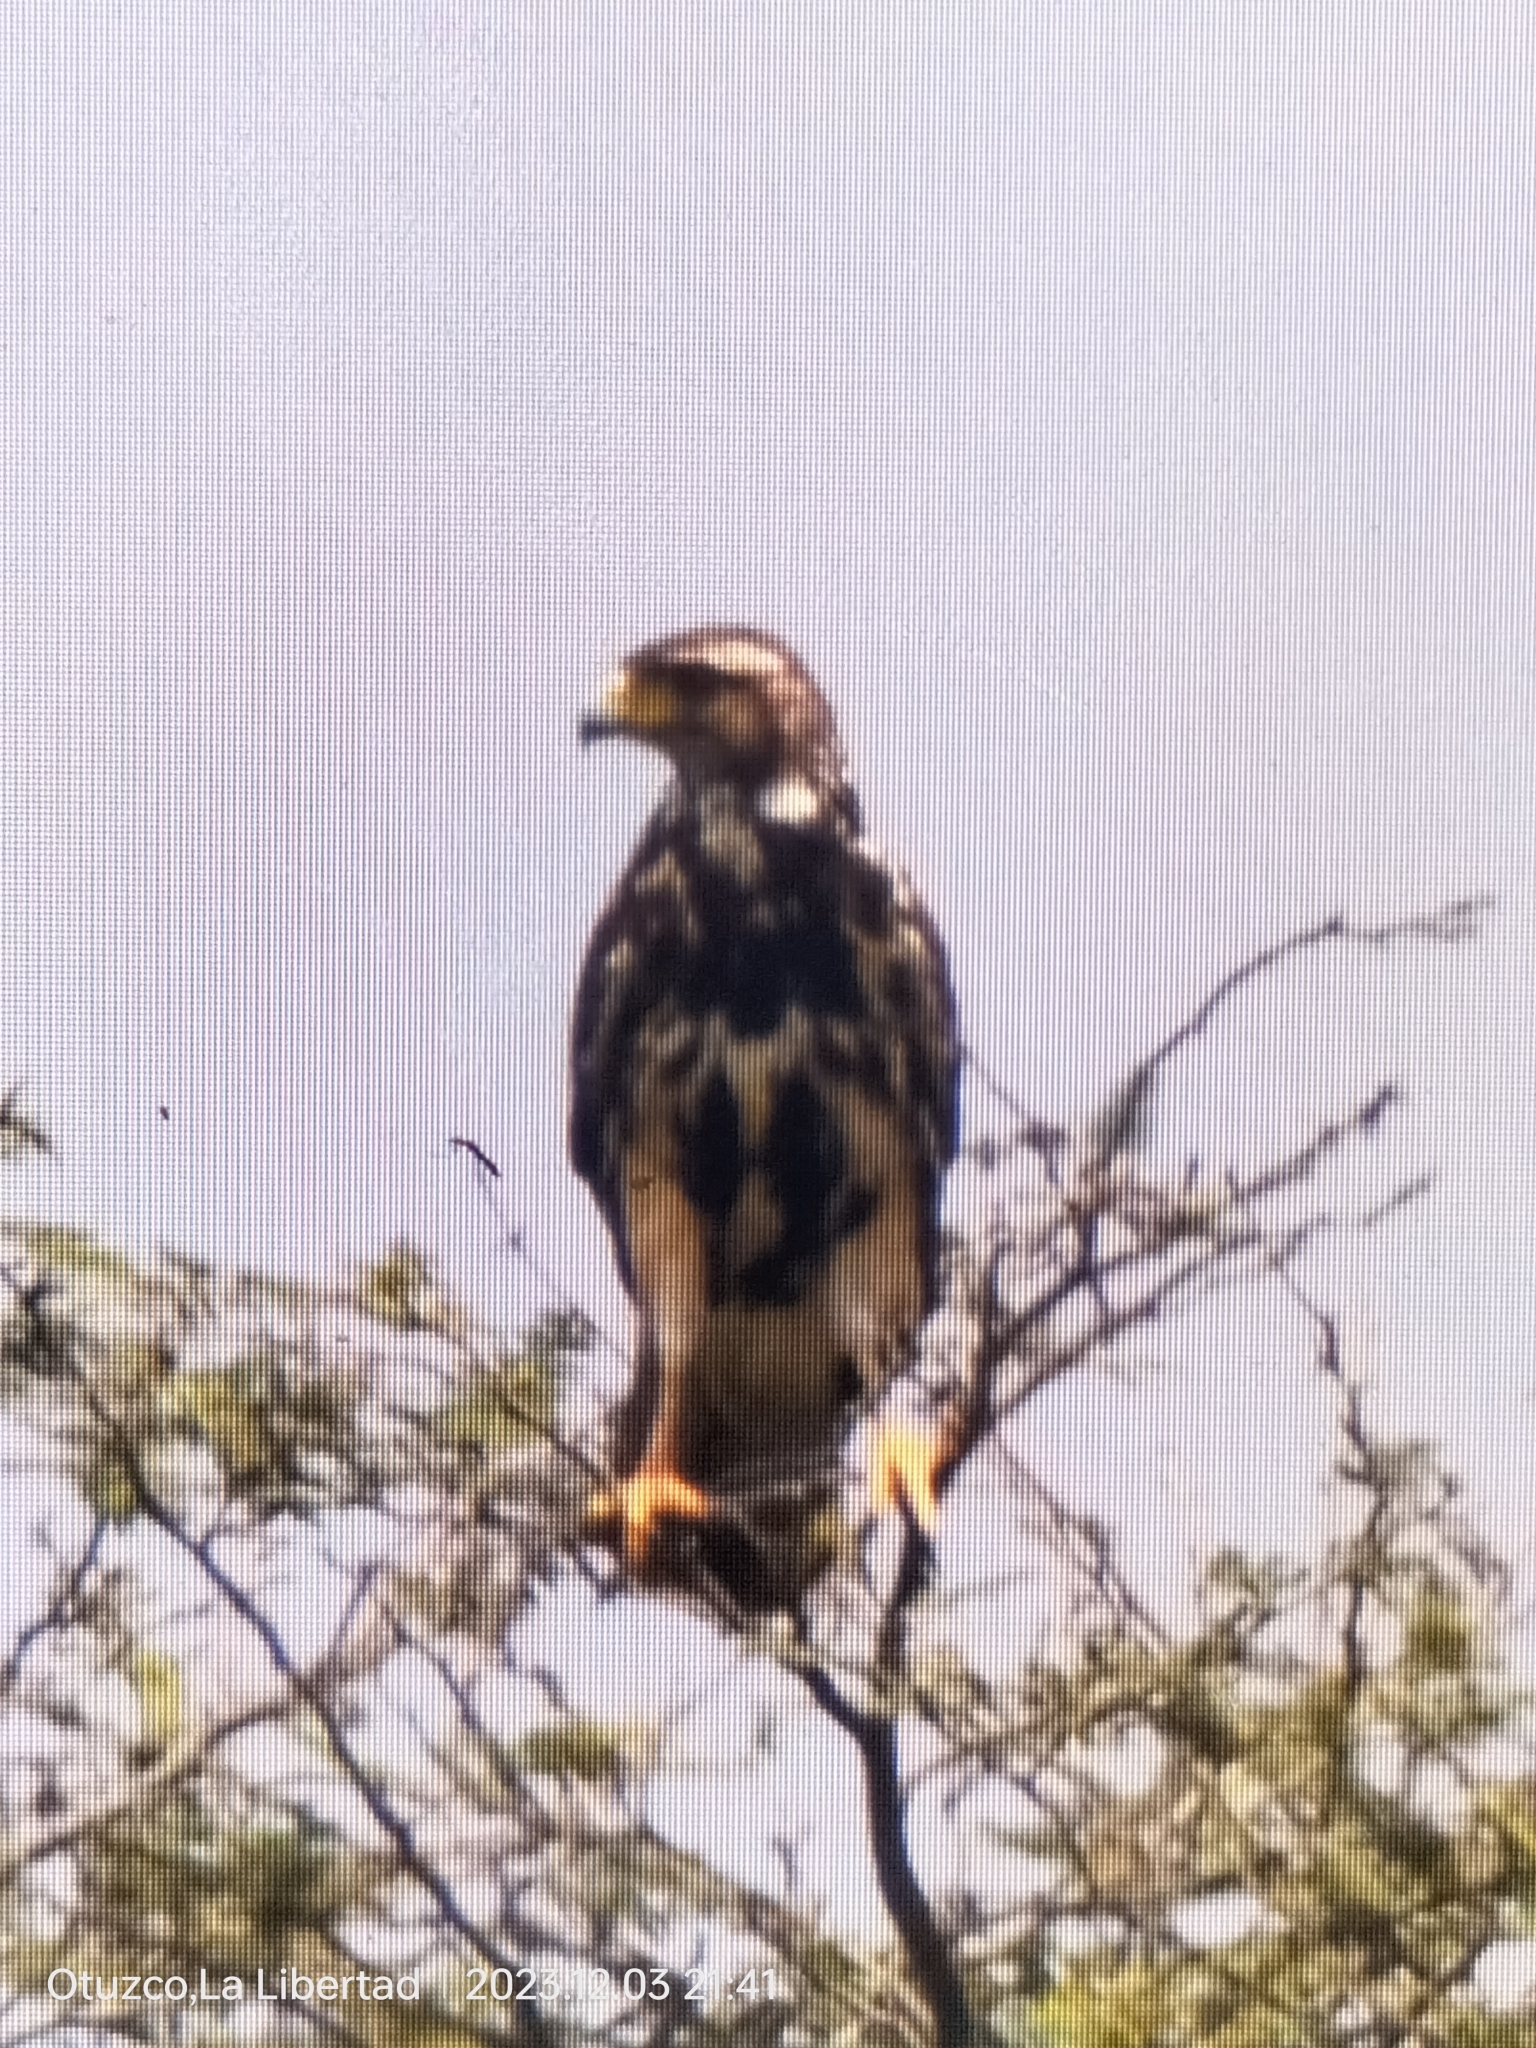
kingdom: Animalia
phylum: Chordata
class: Aves
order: Accipitriformes
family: Accipitridae
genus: Parabuteo
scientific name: Parabuteo unicinctus
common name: Harris's hawk
